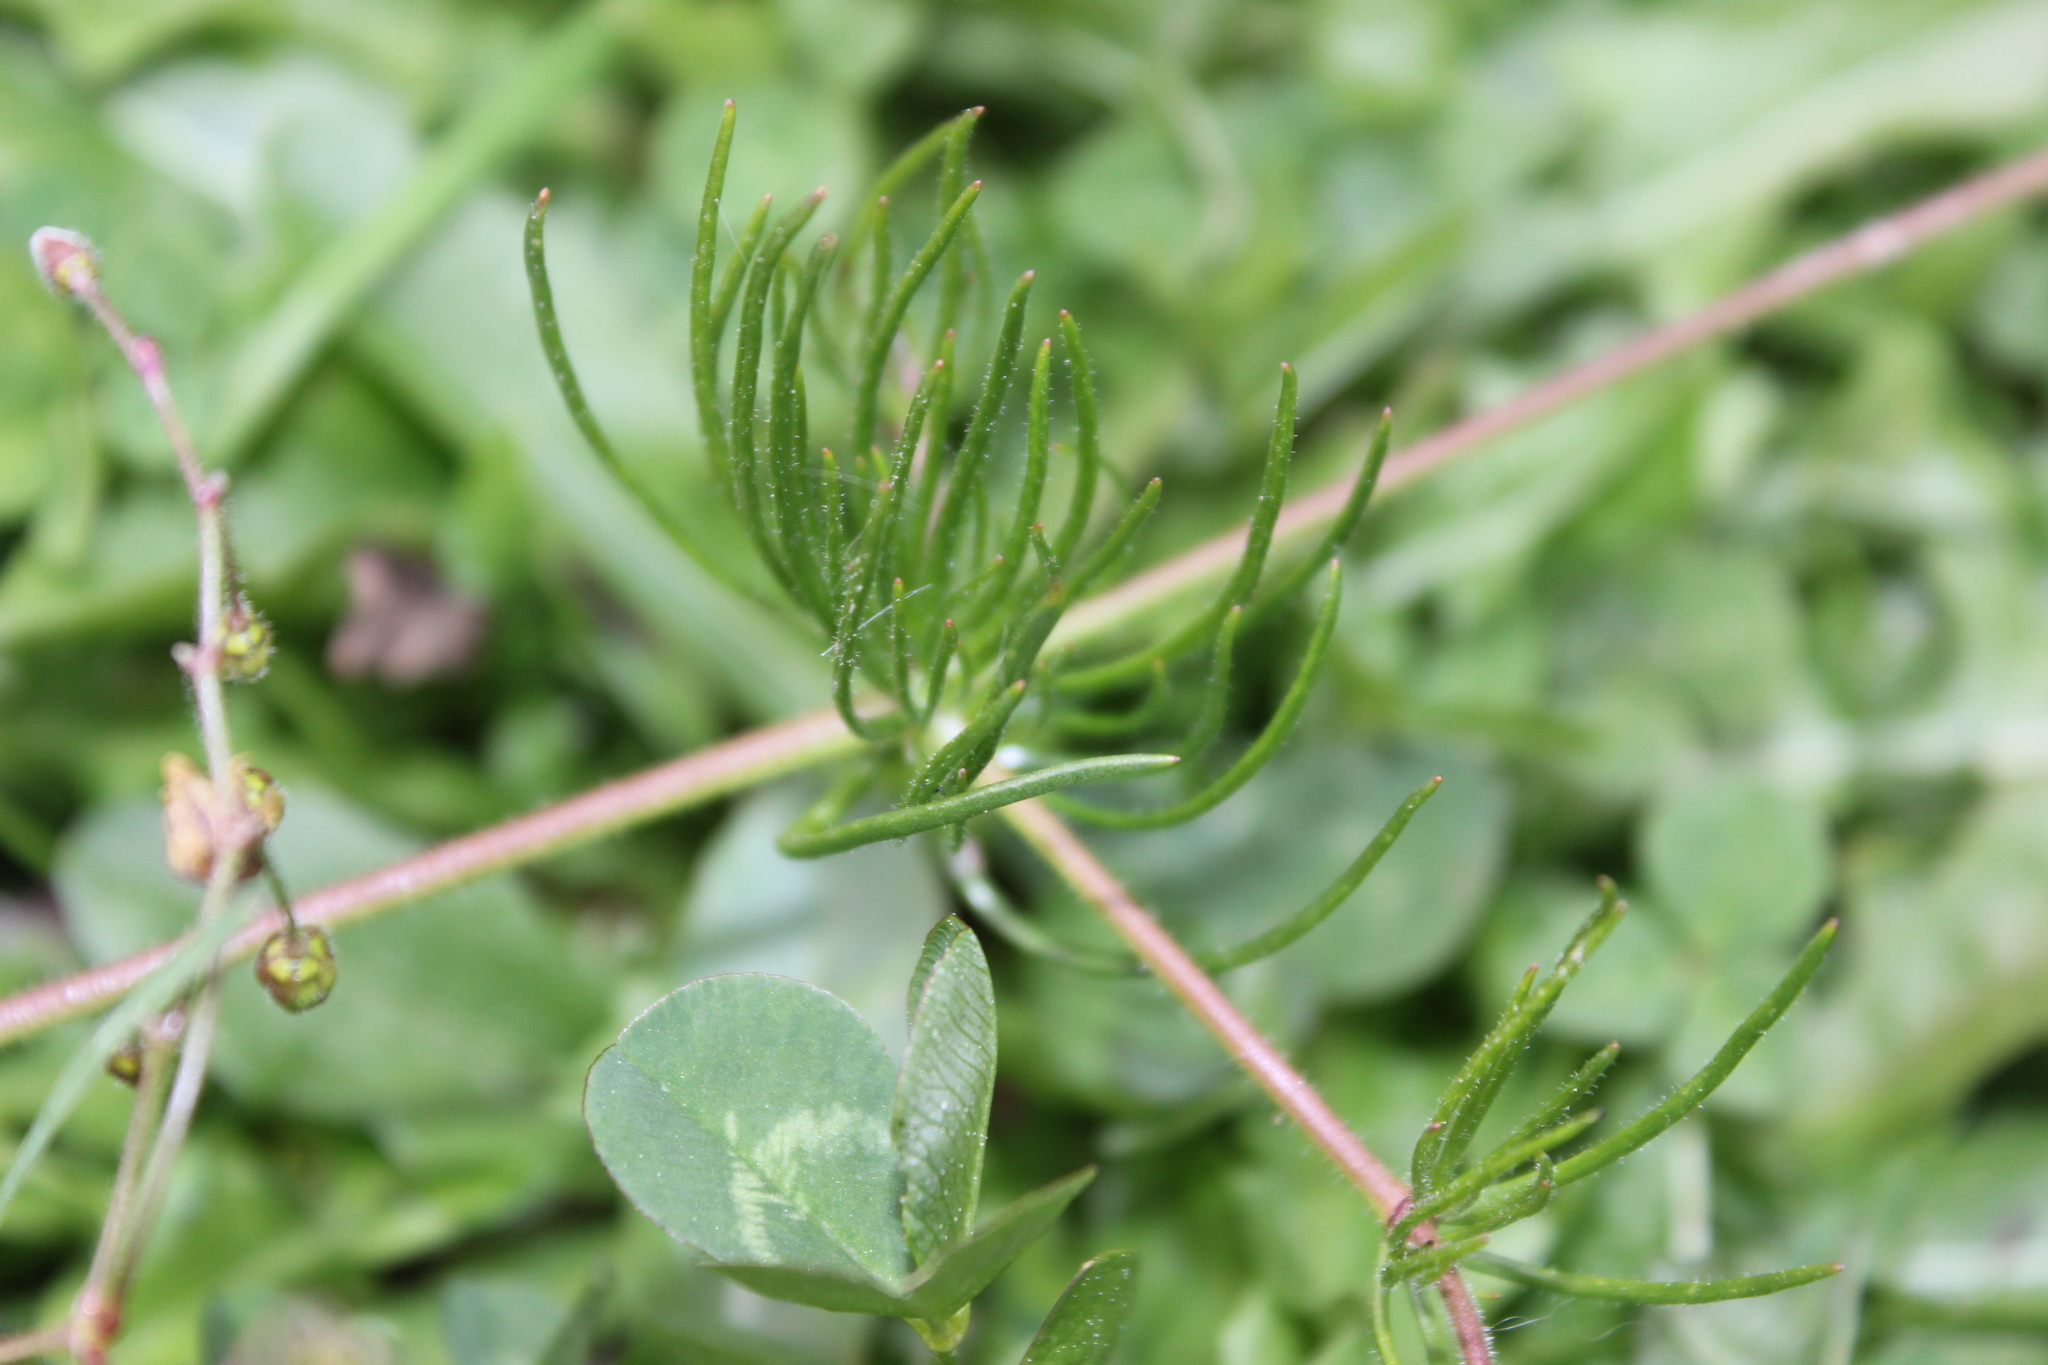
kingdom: Plantae
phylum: Tracheophyta
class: Magnoliopsida
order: Caryophyllales
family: Caryophyllaceae
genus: Spergula
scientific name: Spergula arvensis
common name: Corn spurrey
